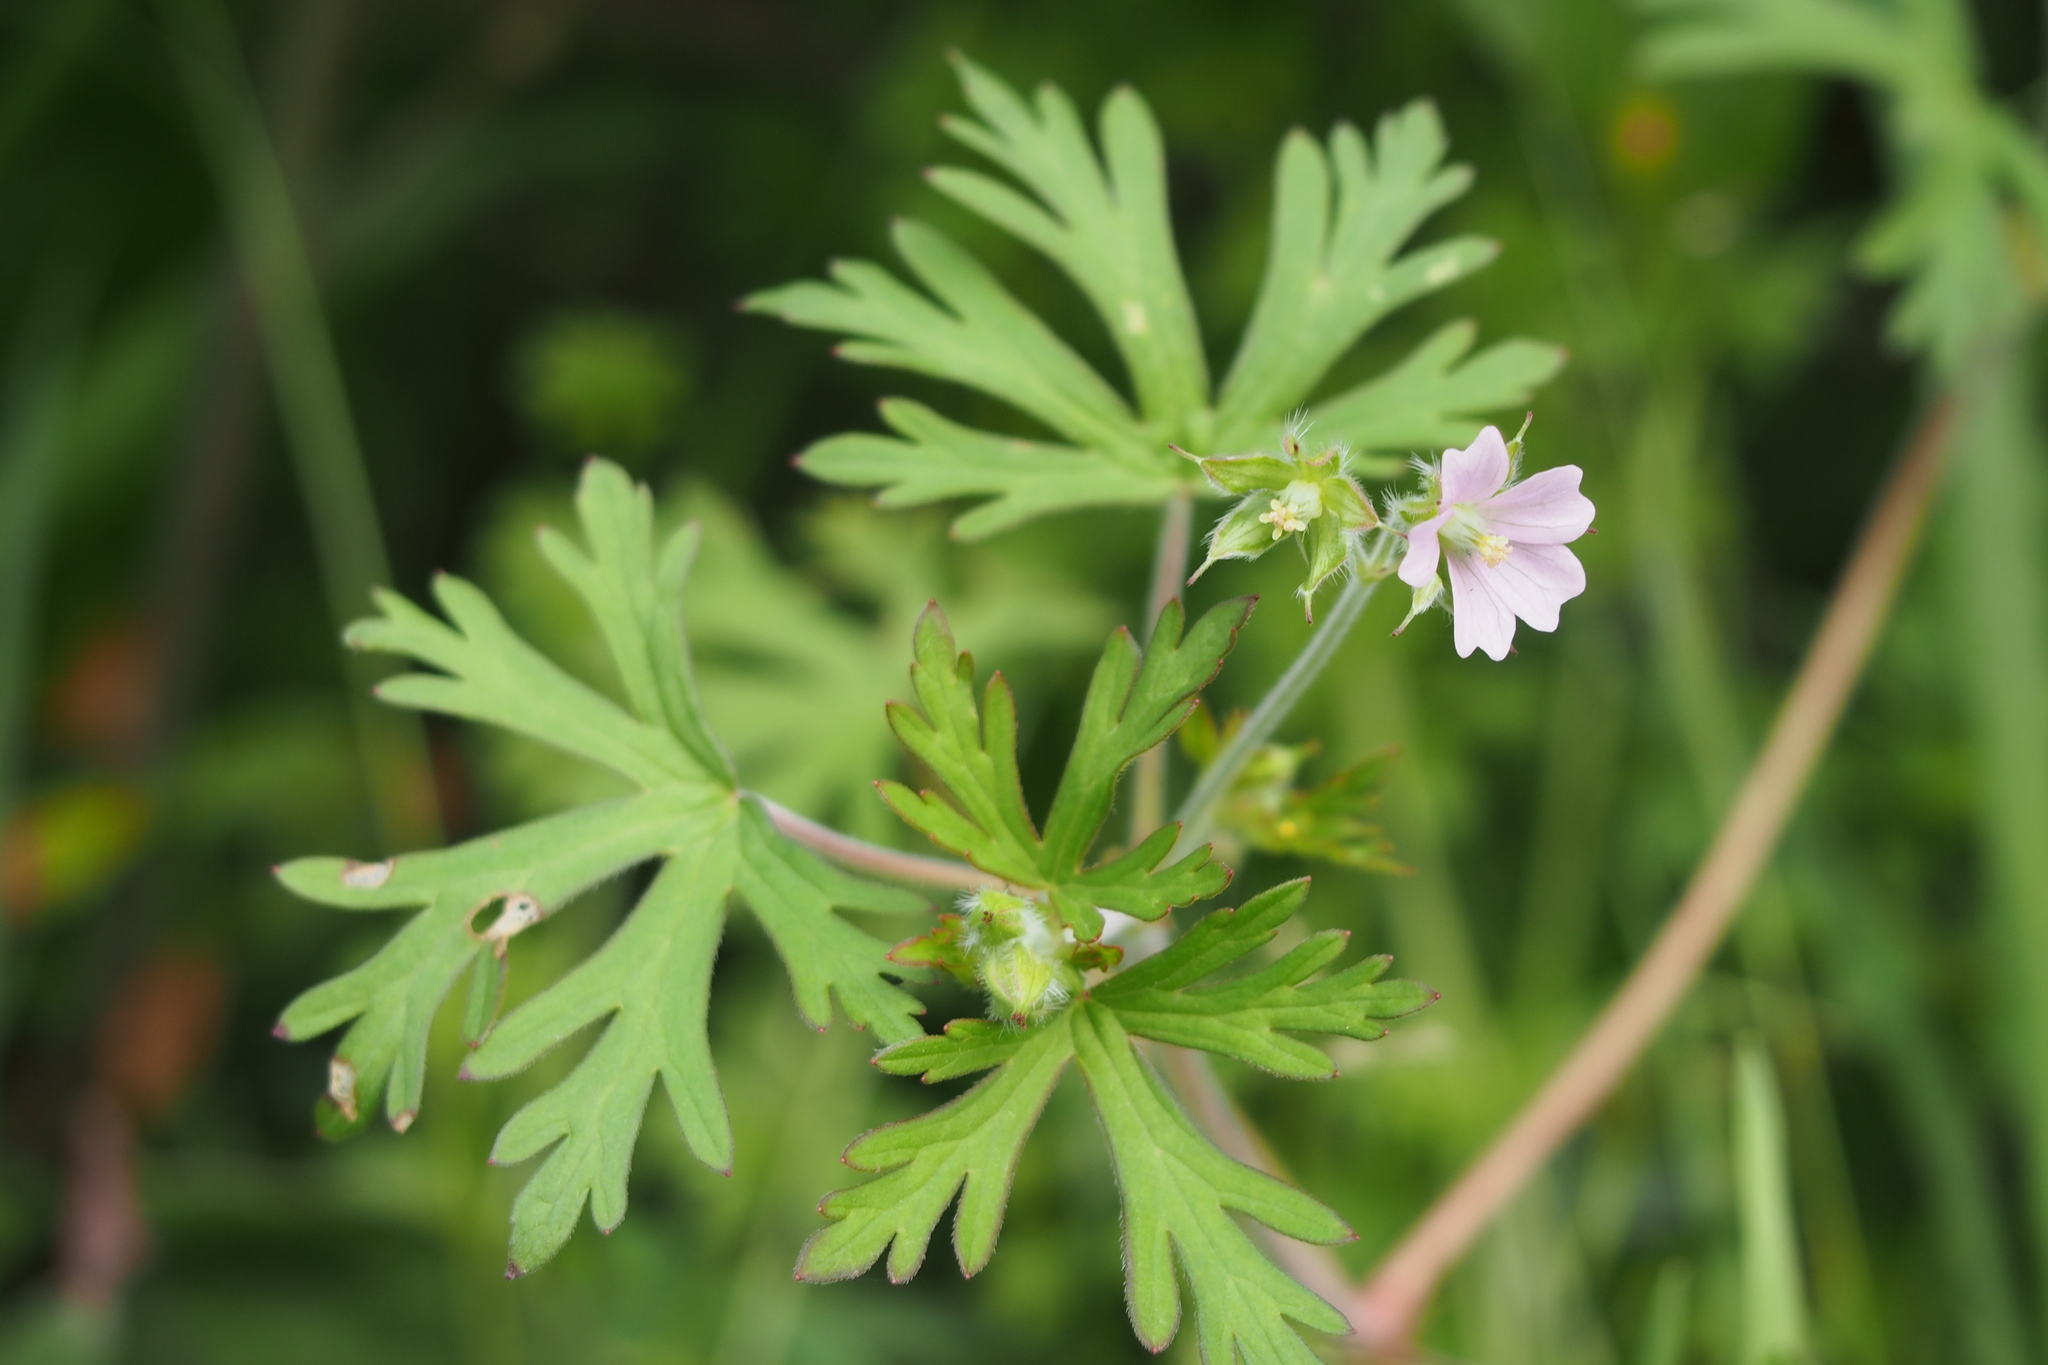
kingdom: Plantae
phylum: Tracheophyta
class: Magnoliopsida
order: Geraniales
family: Geraniaceae
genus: Geranium
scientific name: Geranium carolinianum
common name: Carolina crane's-bill
